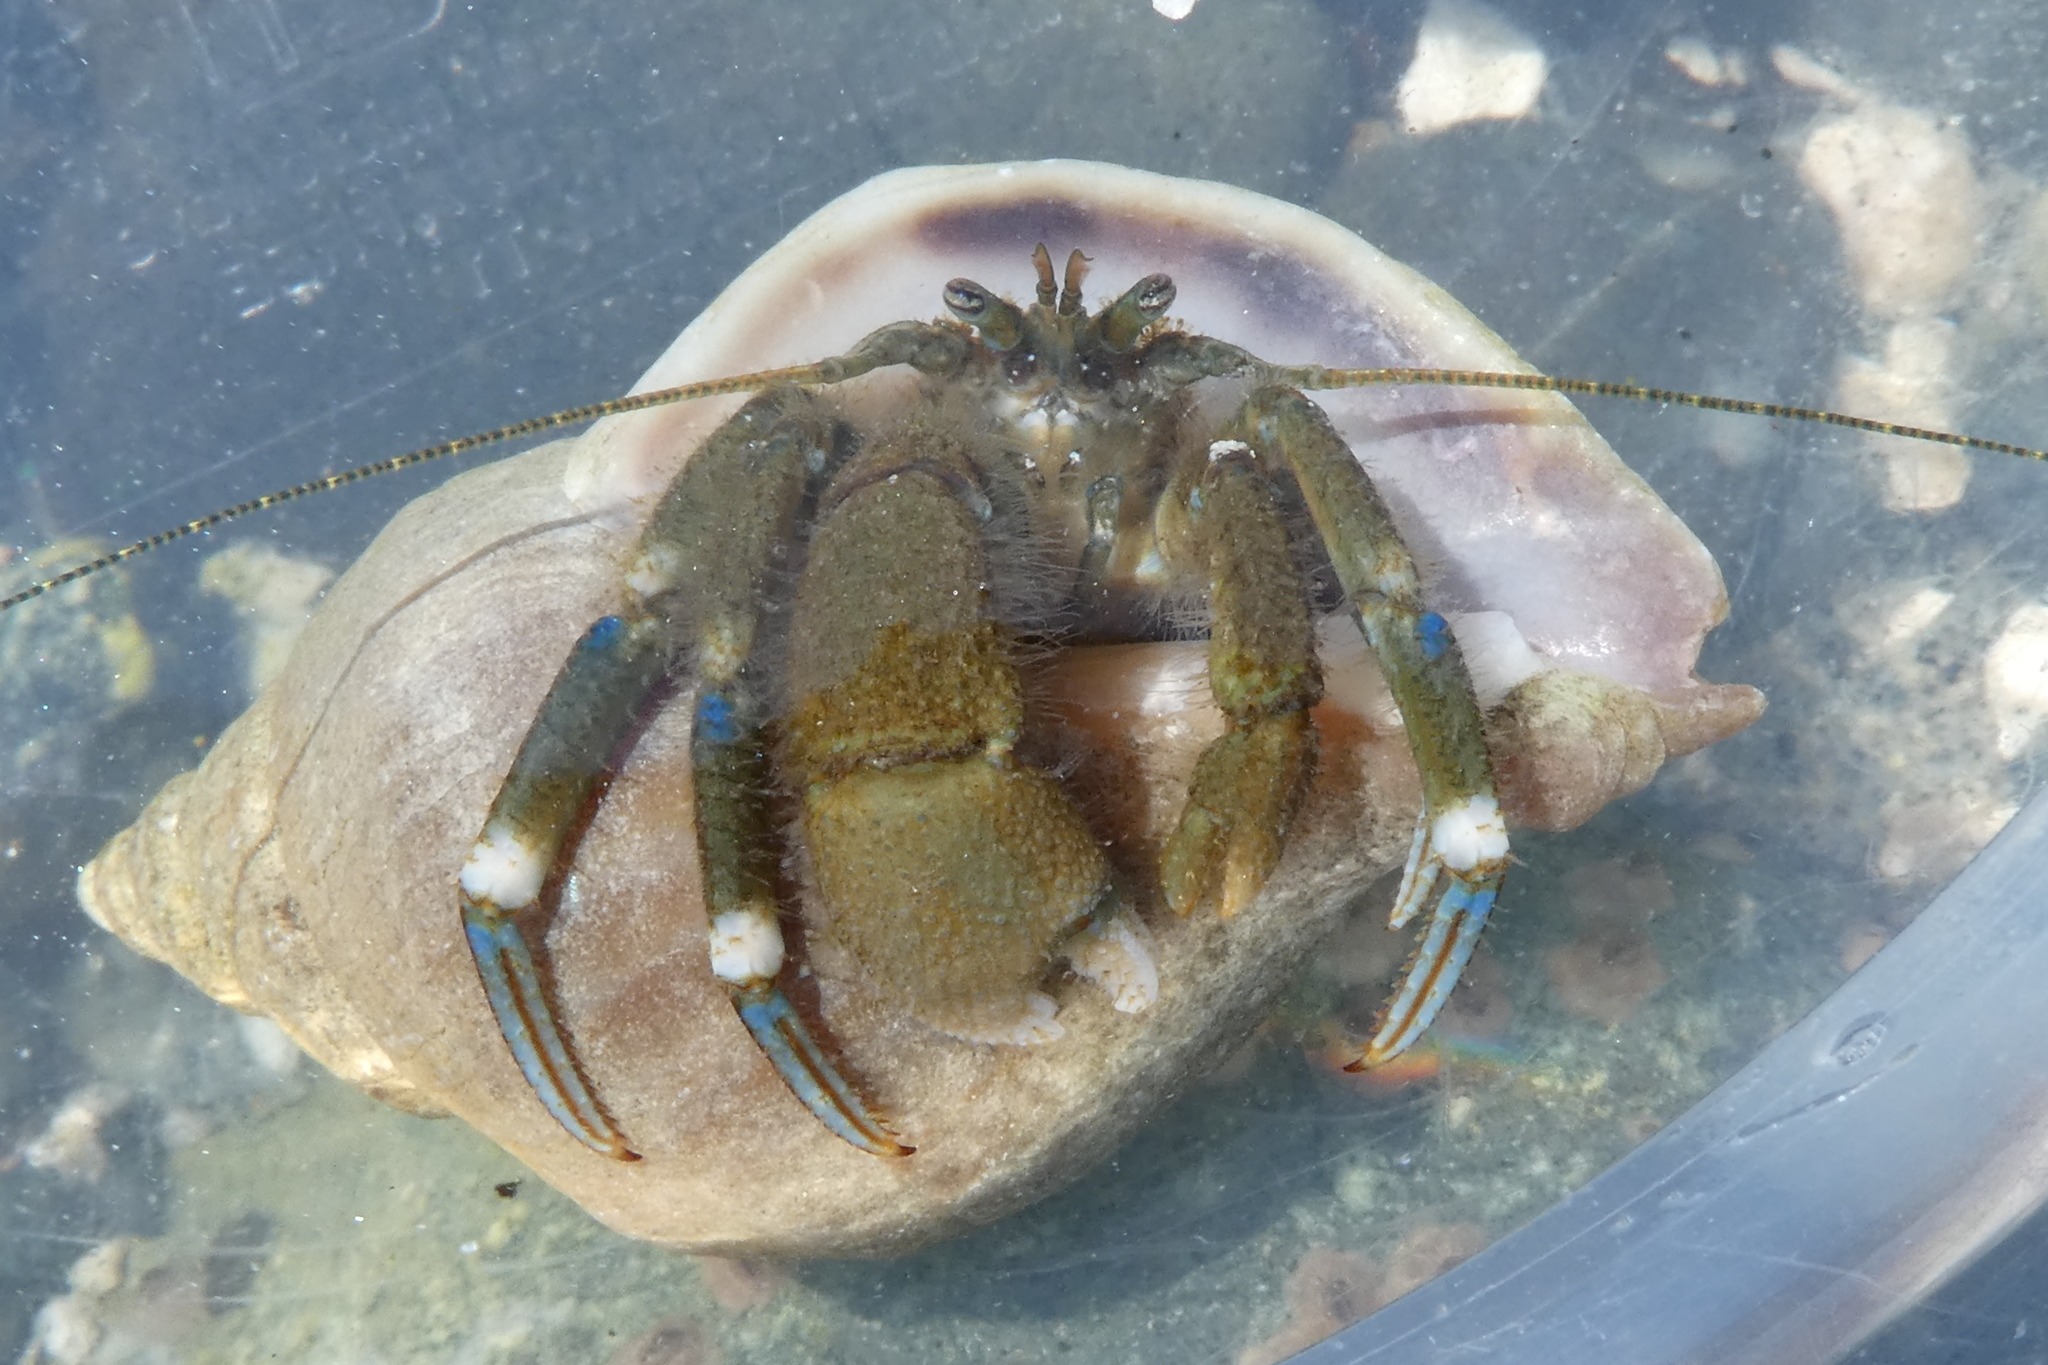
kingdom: Animalia
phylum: Arthropoda
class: Malacostraca
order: Decapoda
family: Paguridae
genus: Pagurus
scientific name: Pagurus hirsutiusculus
